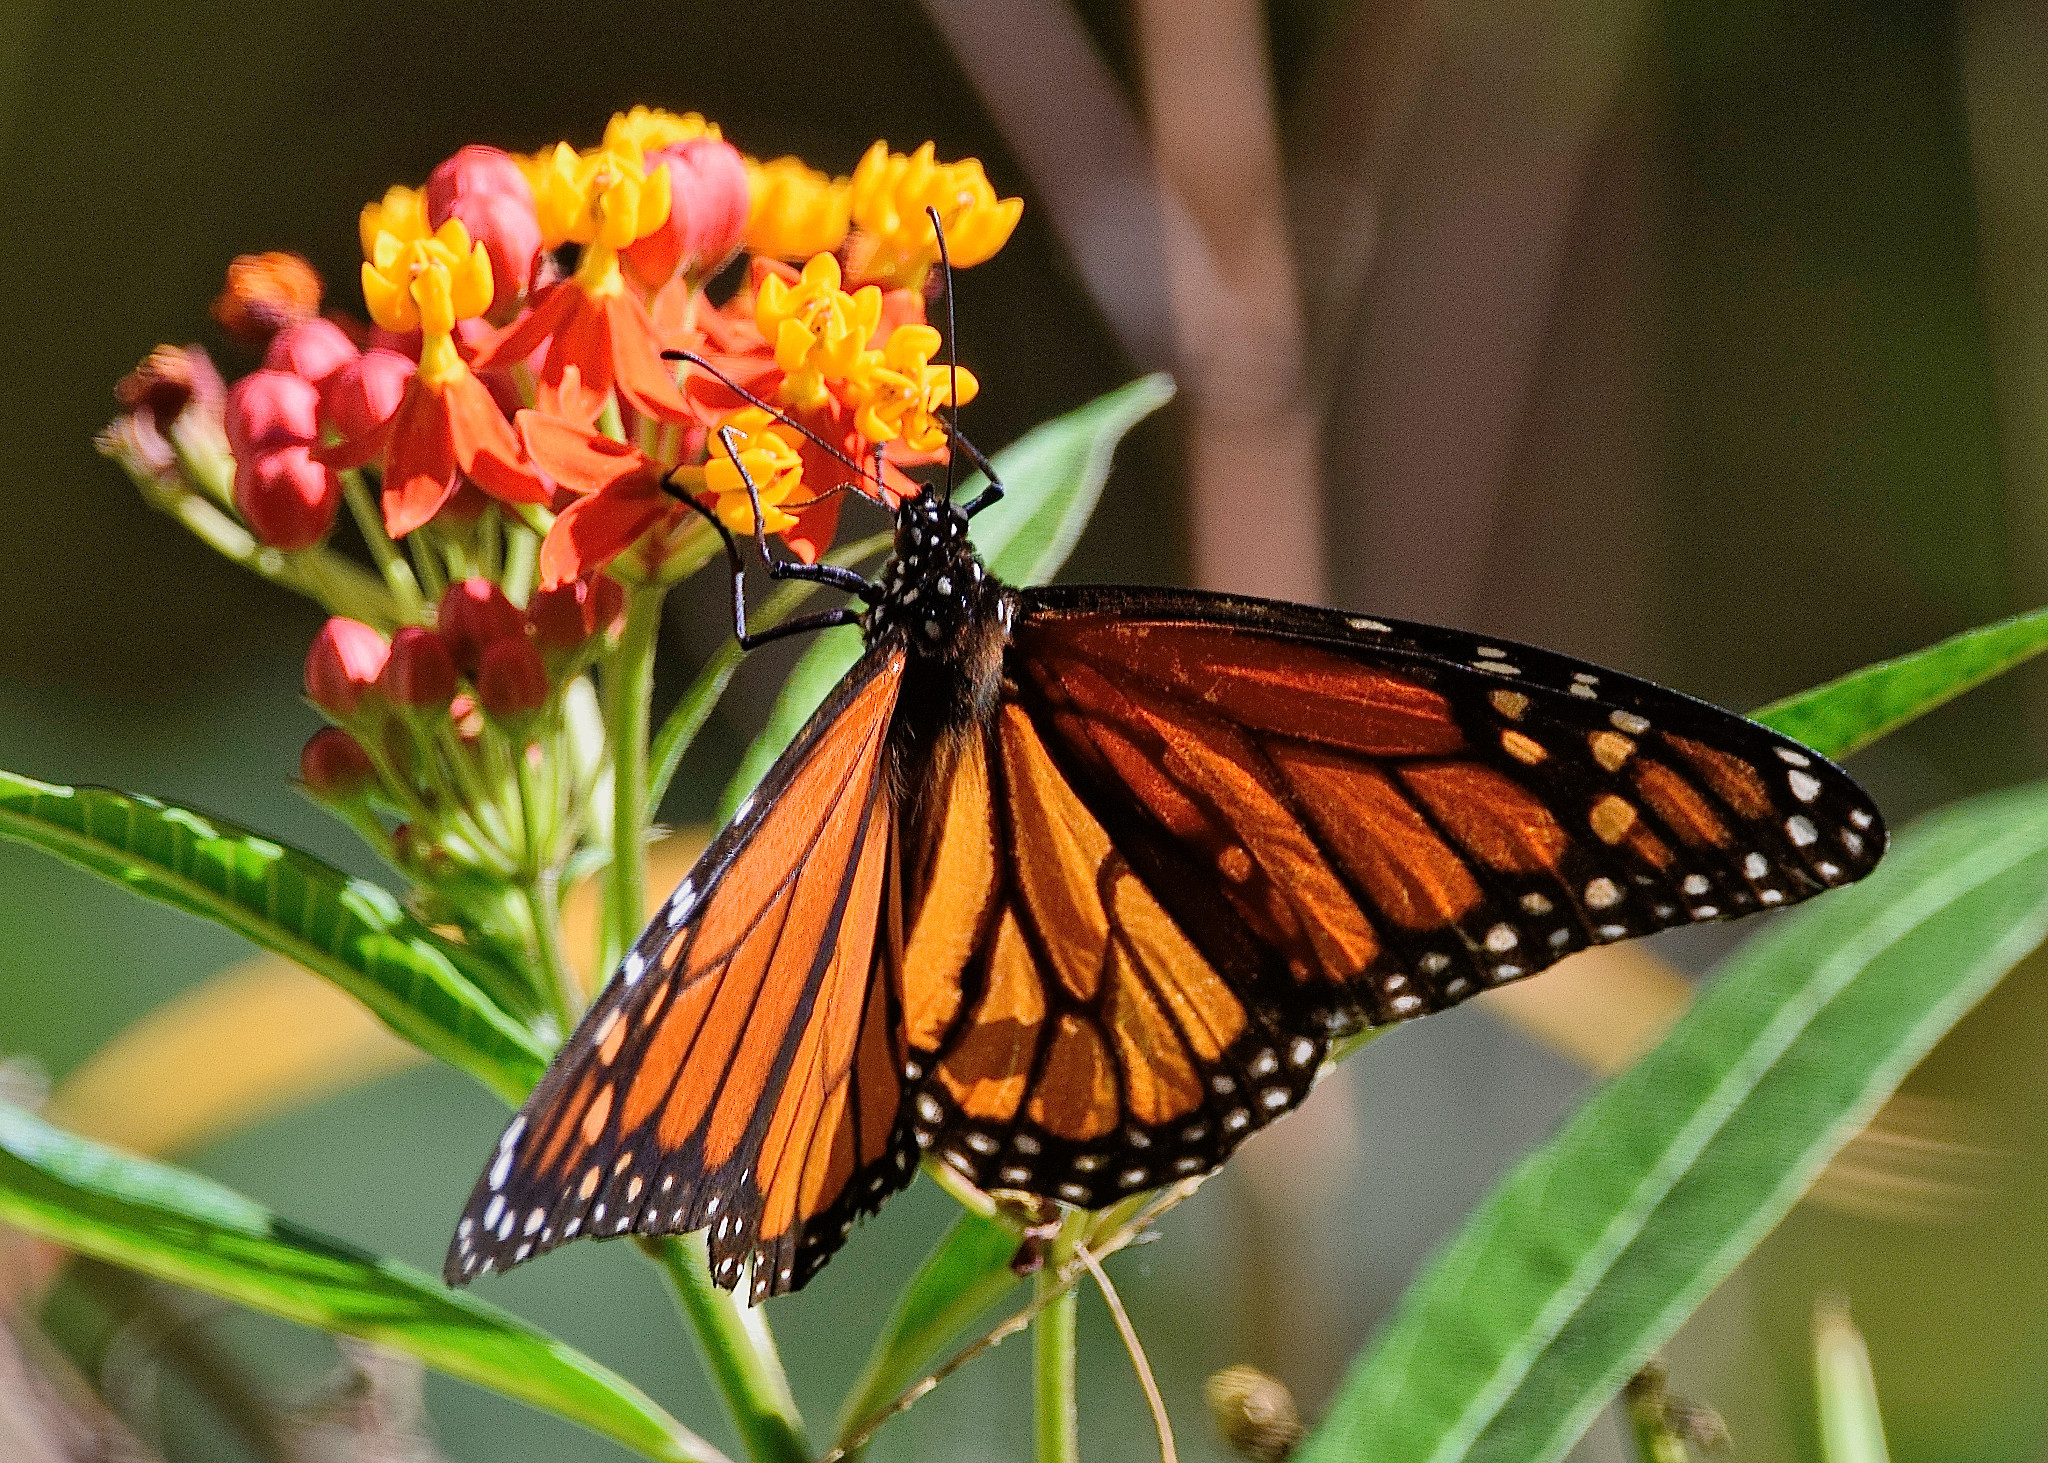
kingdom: Animalia
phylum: Arthropoda
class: Insecta
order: Lepidoptera
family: Nymphalidae
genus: Danaus
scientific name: Danaus plexippus
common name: Monarch
